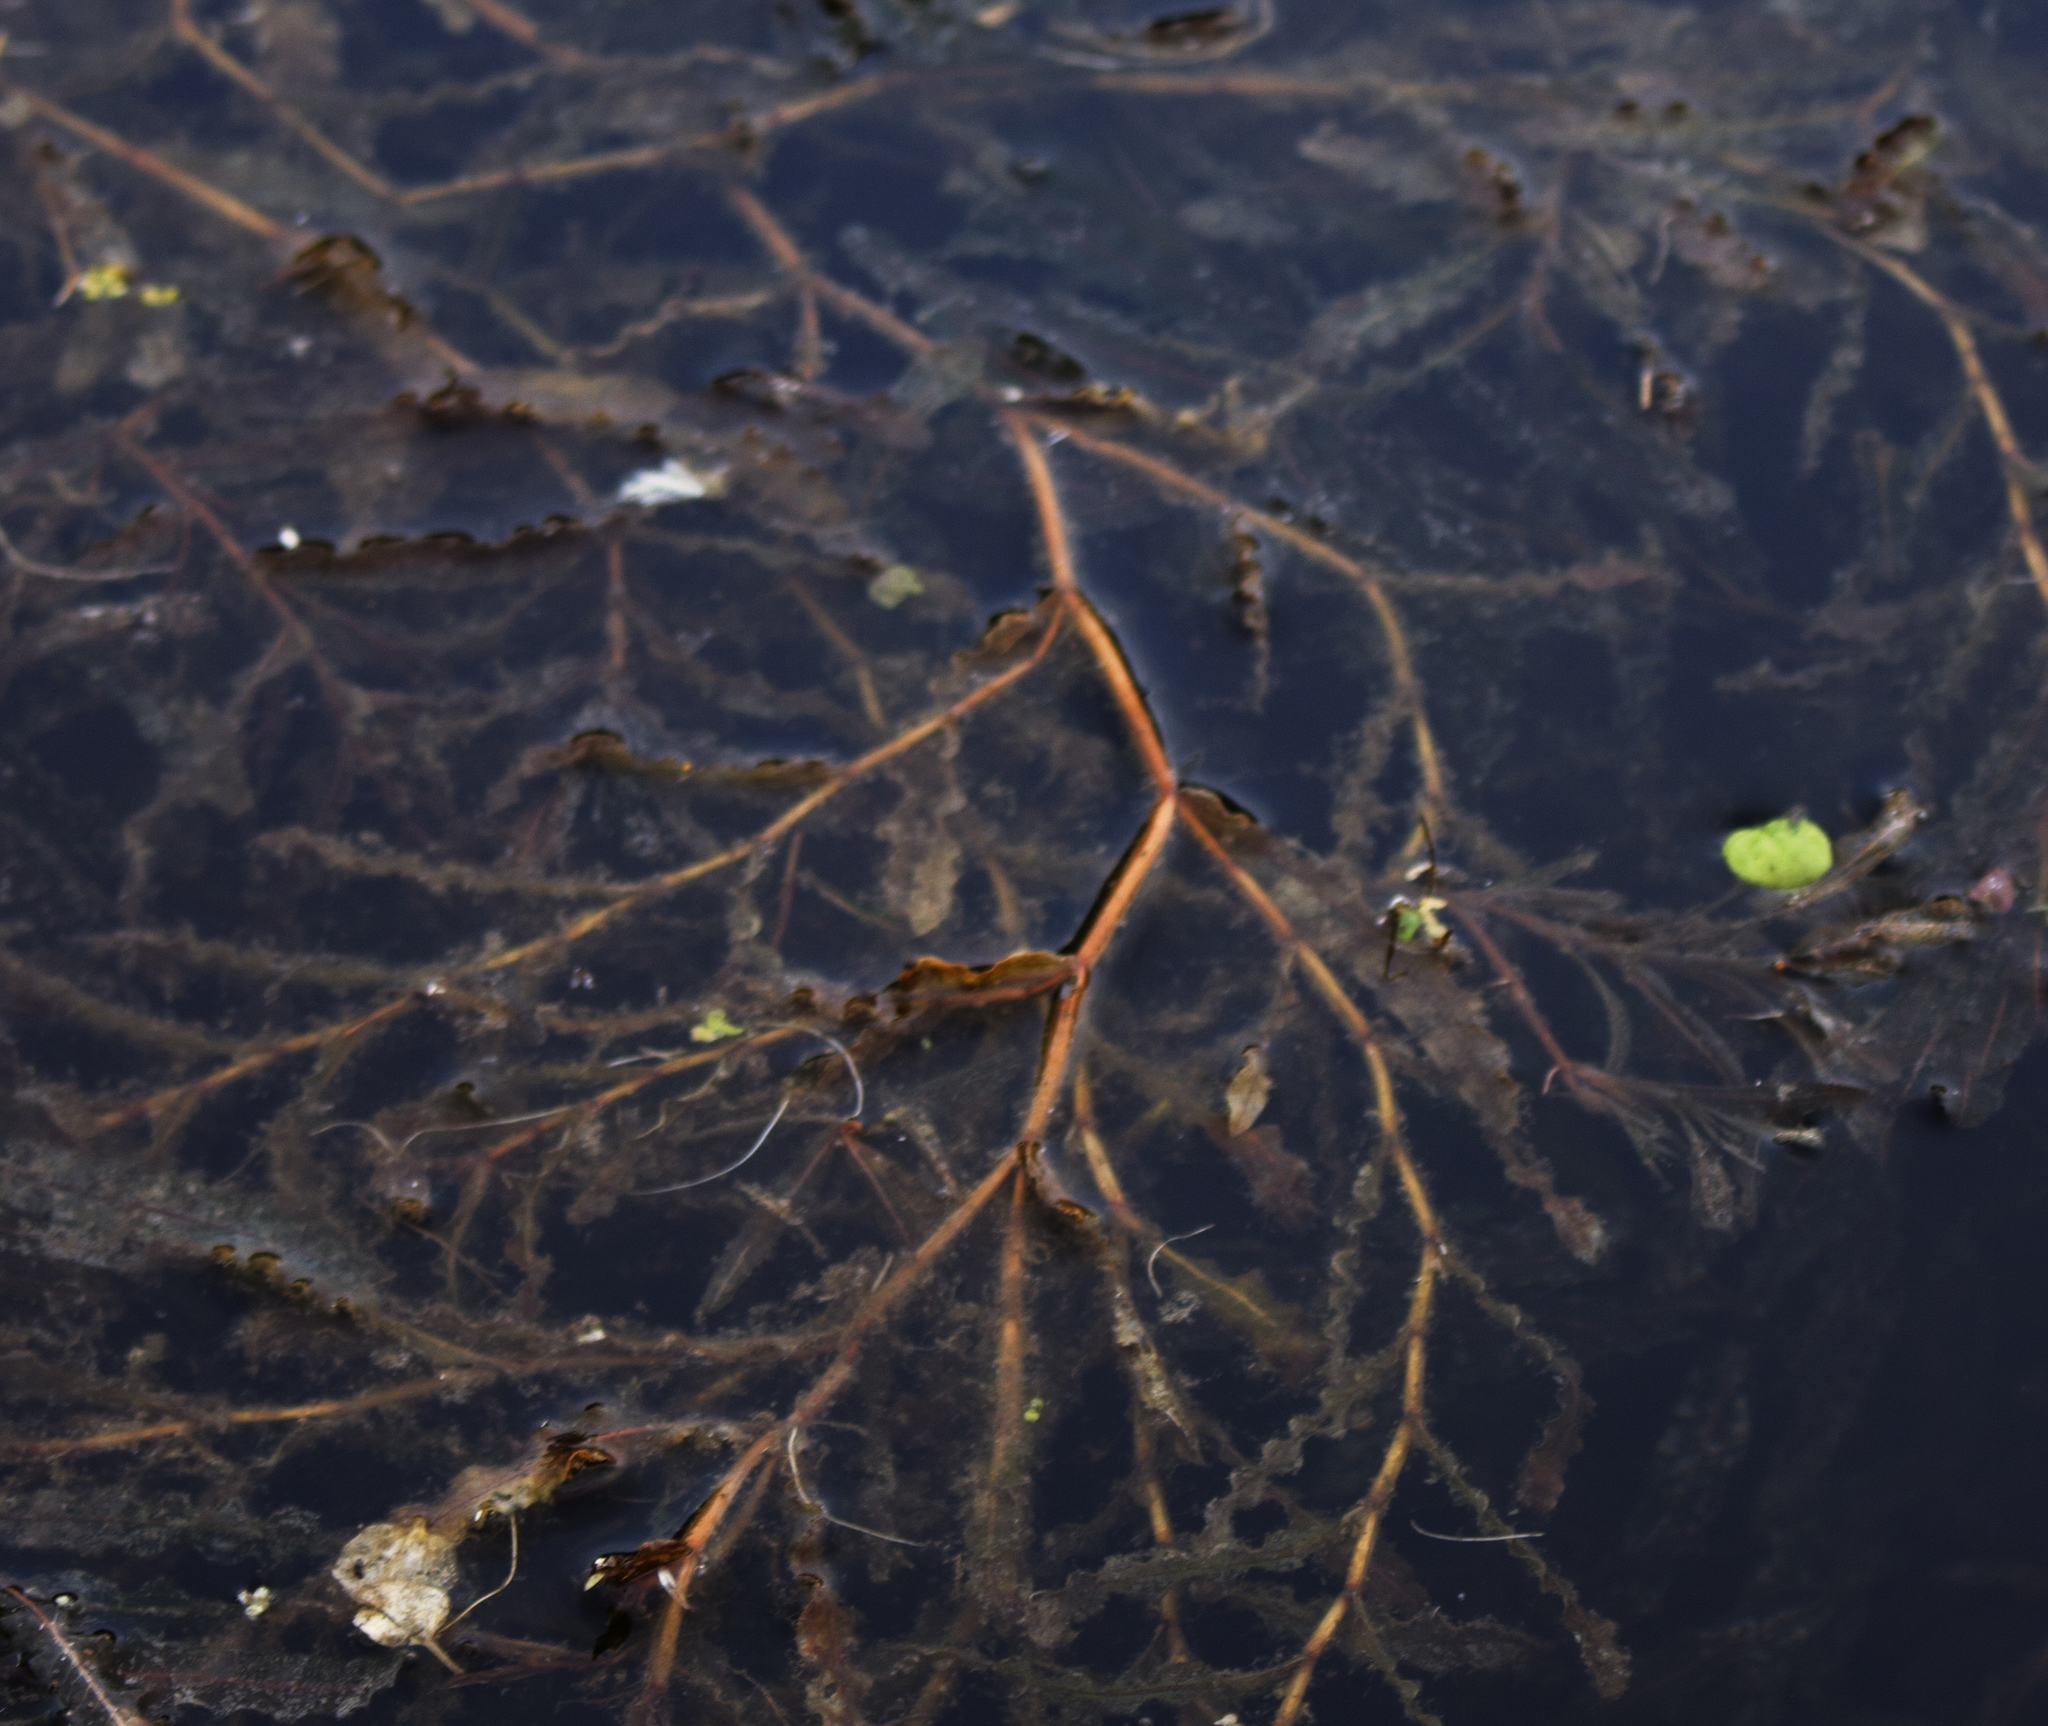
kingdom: Plantae
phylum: Tracheophyta
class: Liliopsida
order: Alismatales
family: Potamogetonaceae
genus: Potamogeton
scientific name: Potamogeton crispus
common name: Curled pondweed
